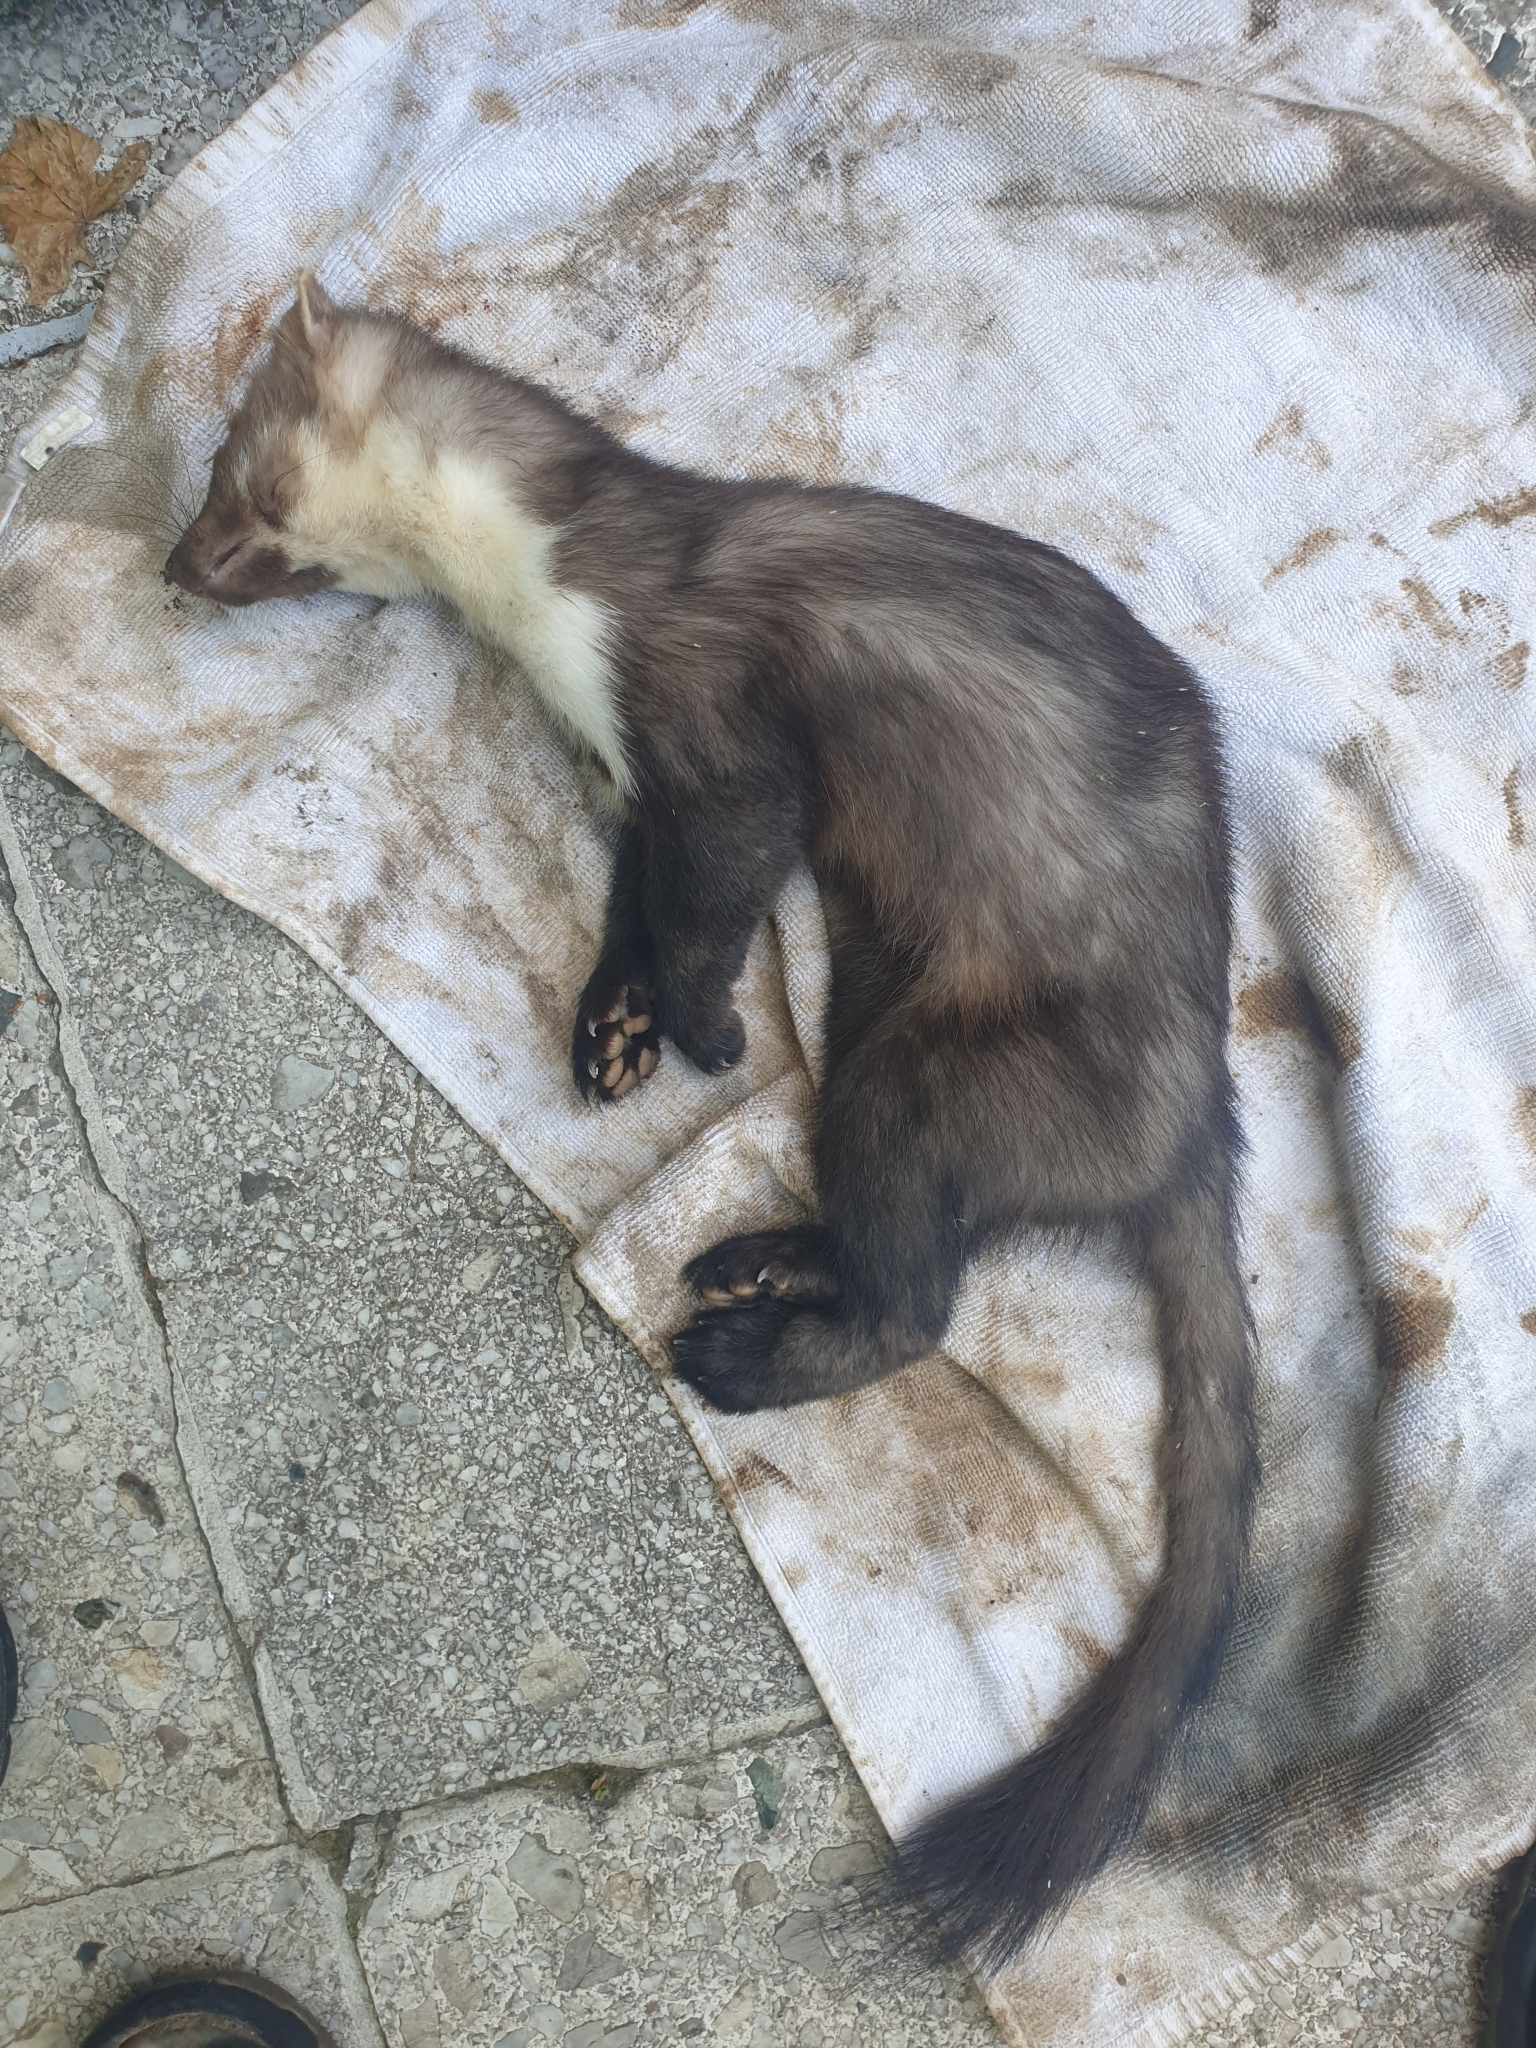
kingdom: Animalia
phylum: Chordata
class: Mammalia
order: Carnivora
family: Mustelidae
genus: Martes
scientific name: Martes foina
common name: Beech marten
